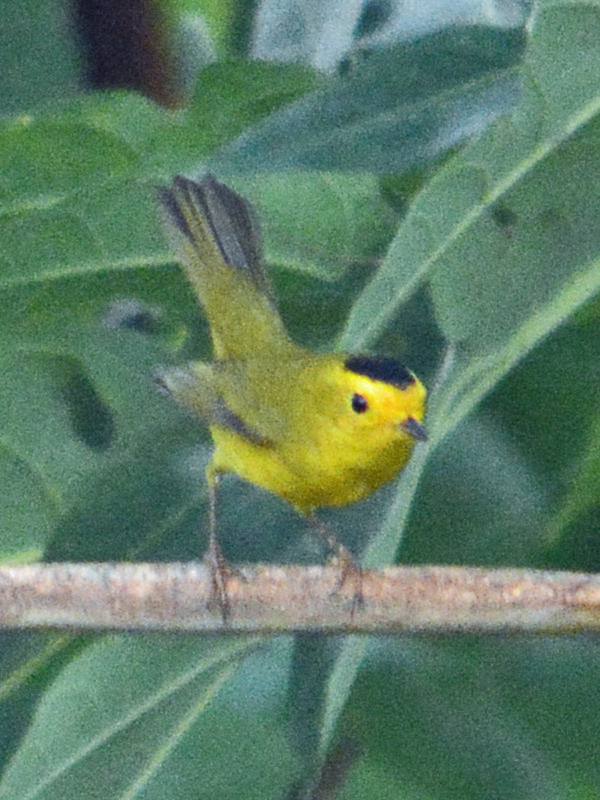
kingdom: Animalia
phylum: Chordata
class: Aves
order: Passeriformes
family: Parulidae
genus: Cardellina
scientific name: Cardellina pusilla
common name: Wilson's warbler
